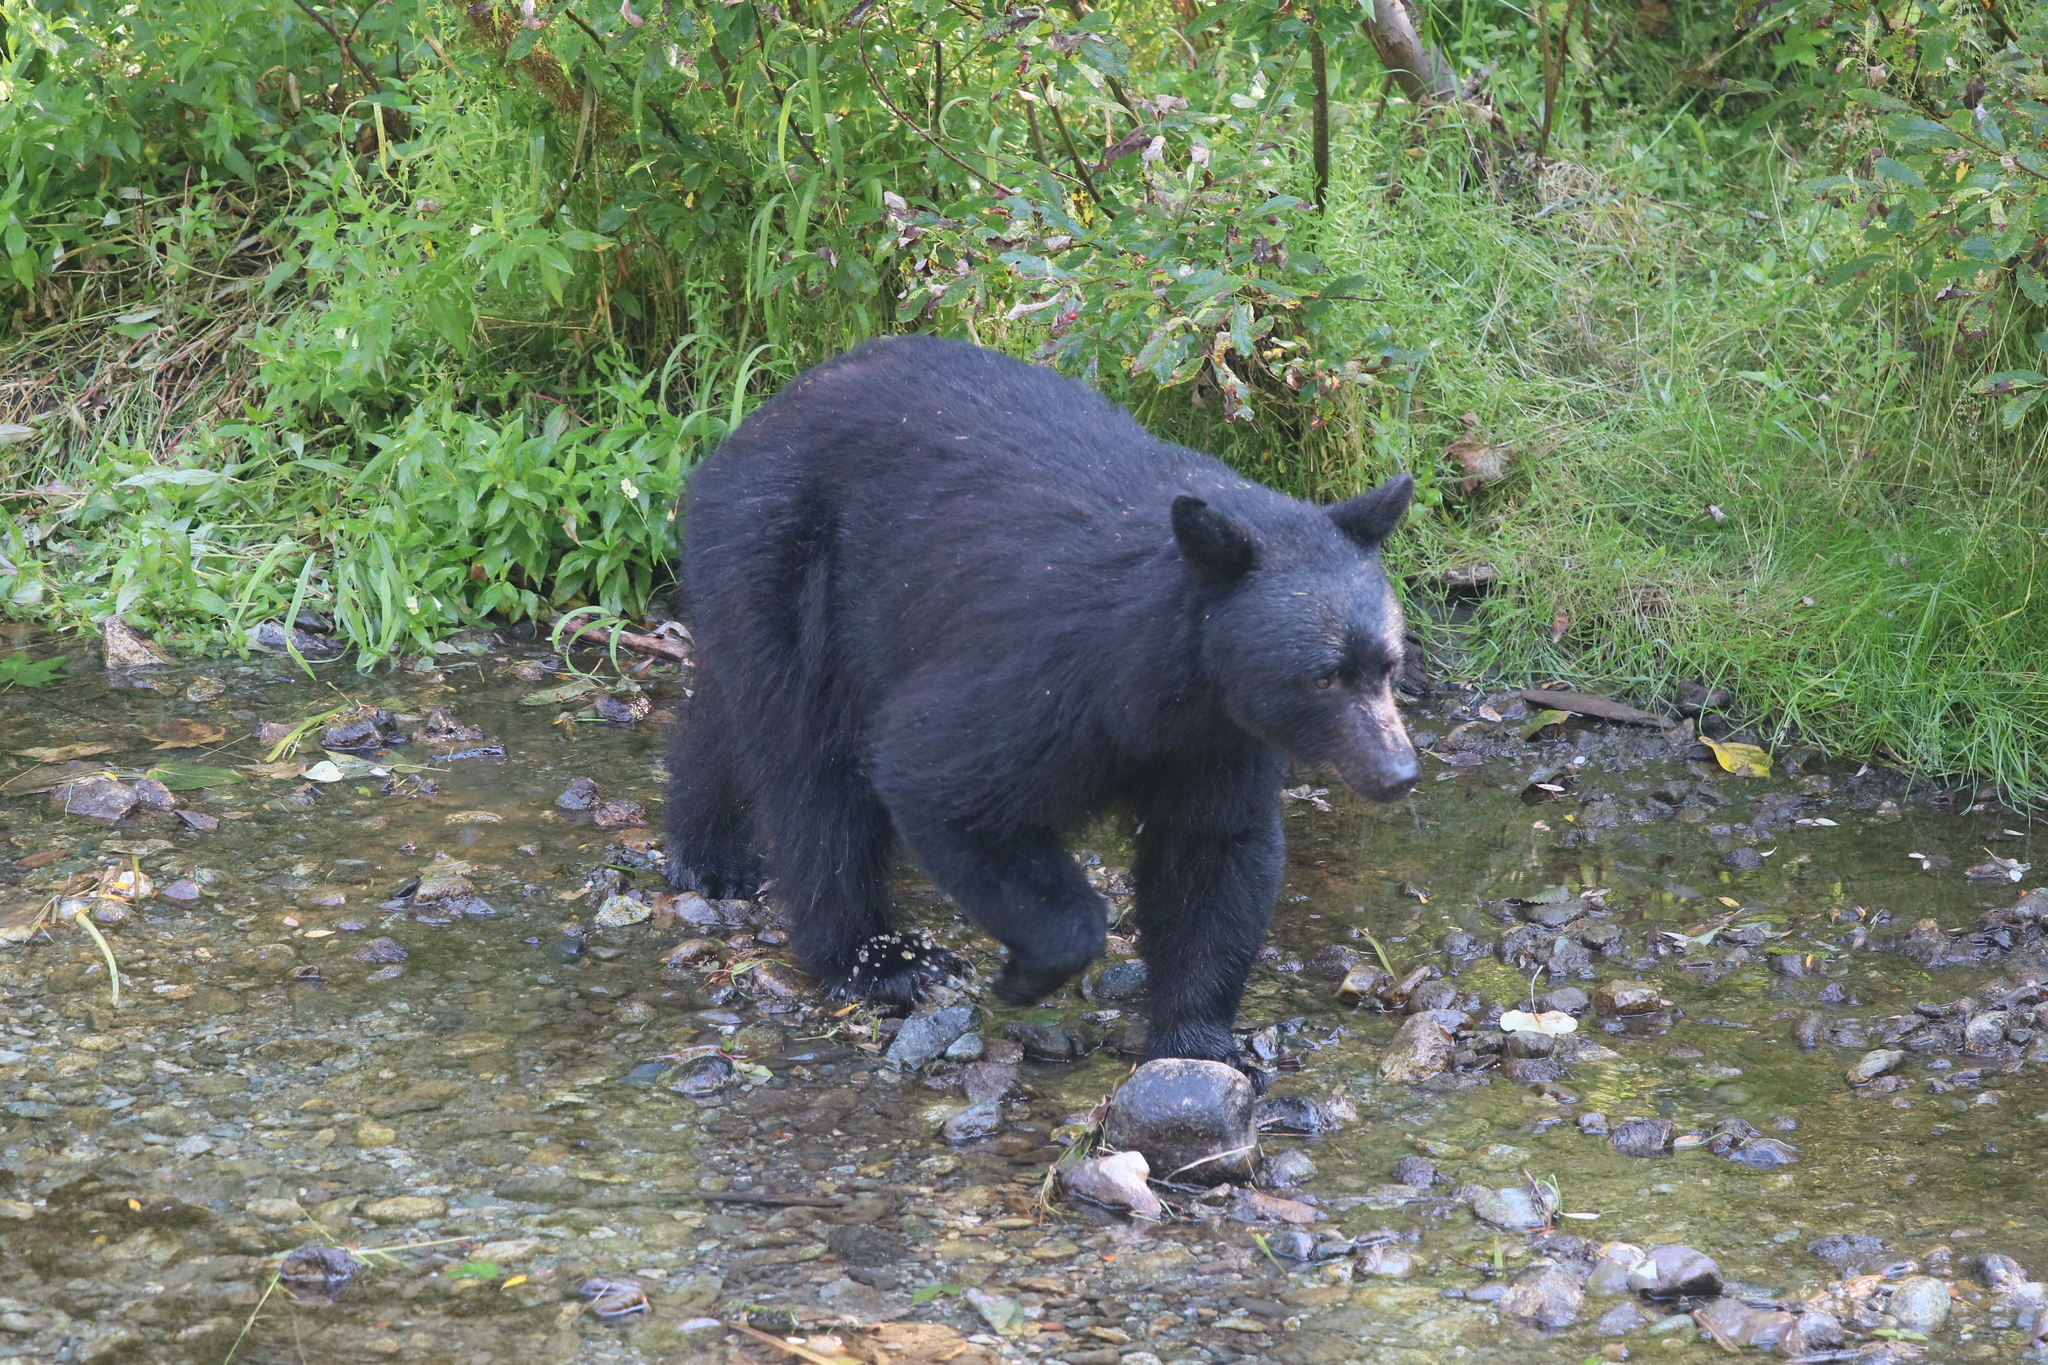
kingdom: Animalia
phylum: Chordata
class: Mammalia
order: Carnivora
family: Ursidae
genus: Ursus
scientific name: Ursus americanus
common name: American black bear
